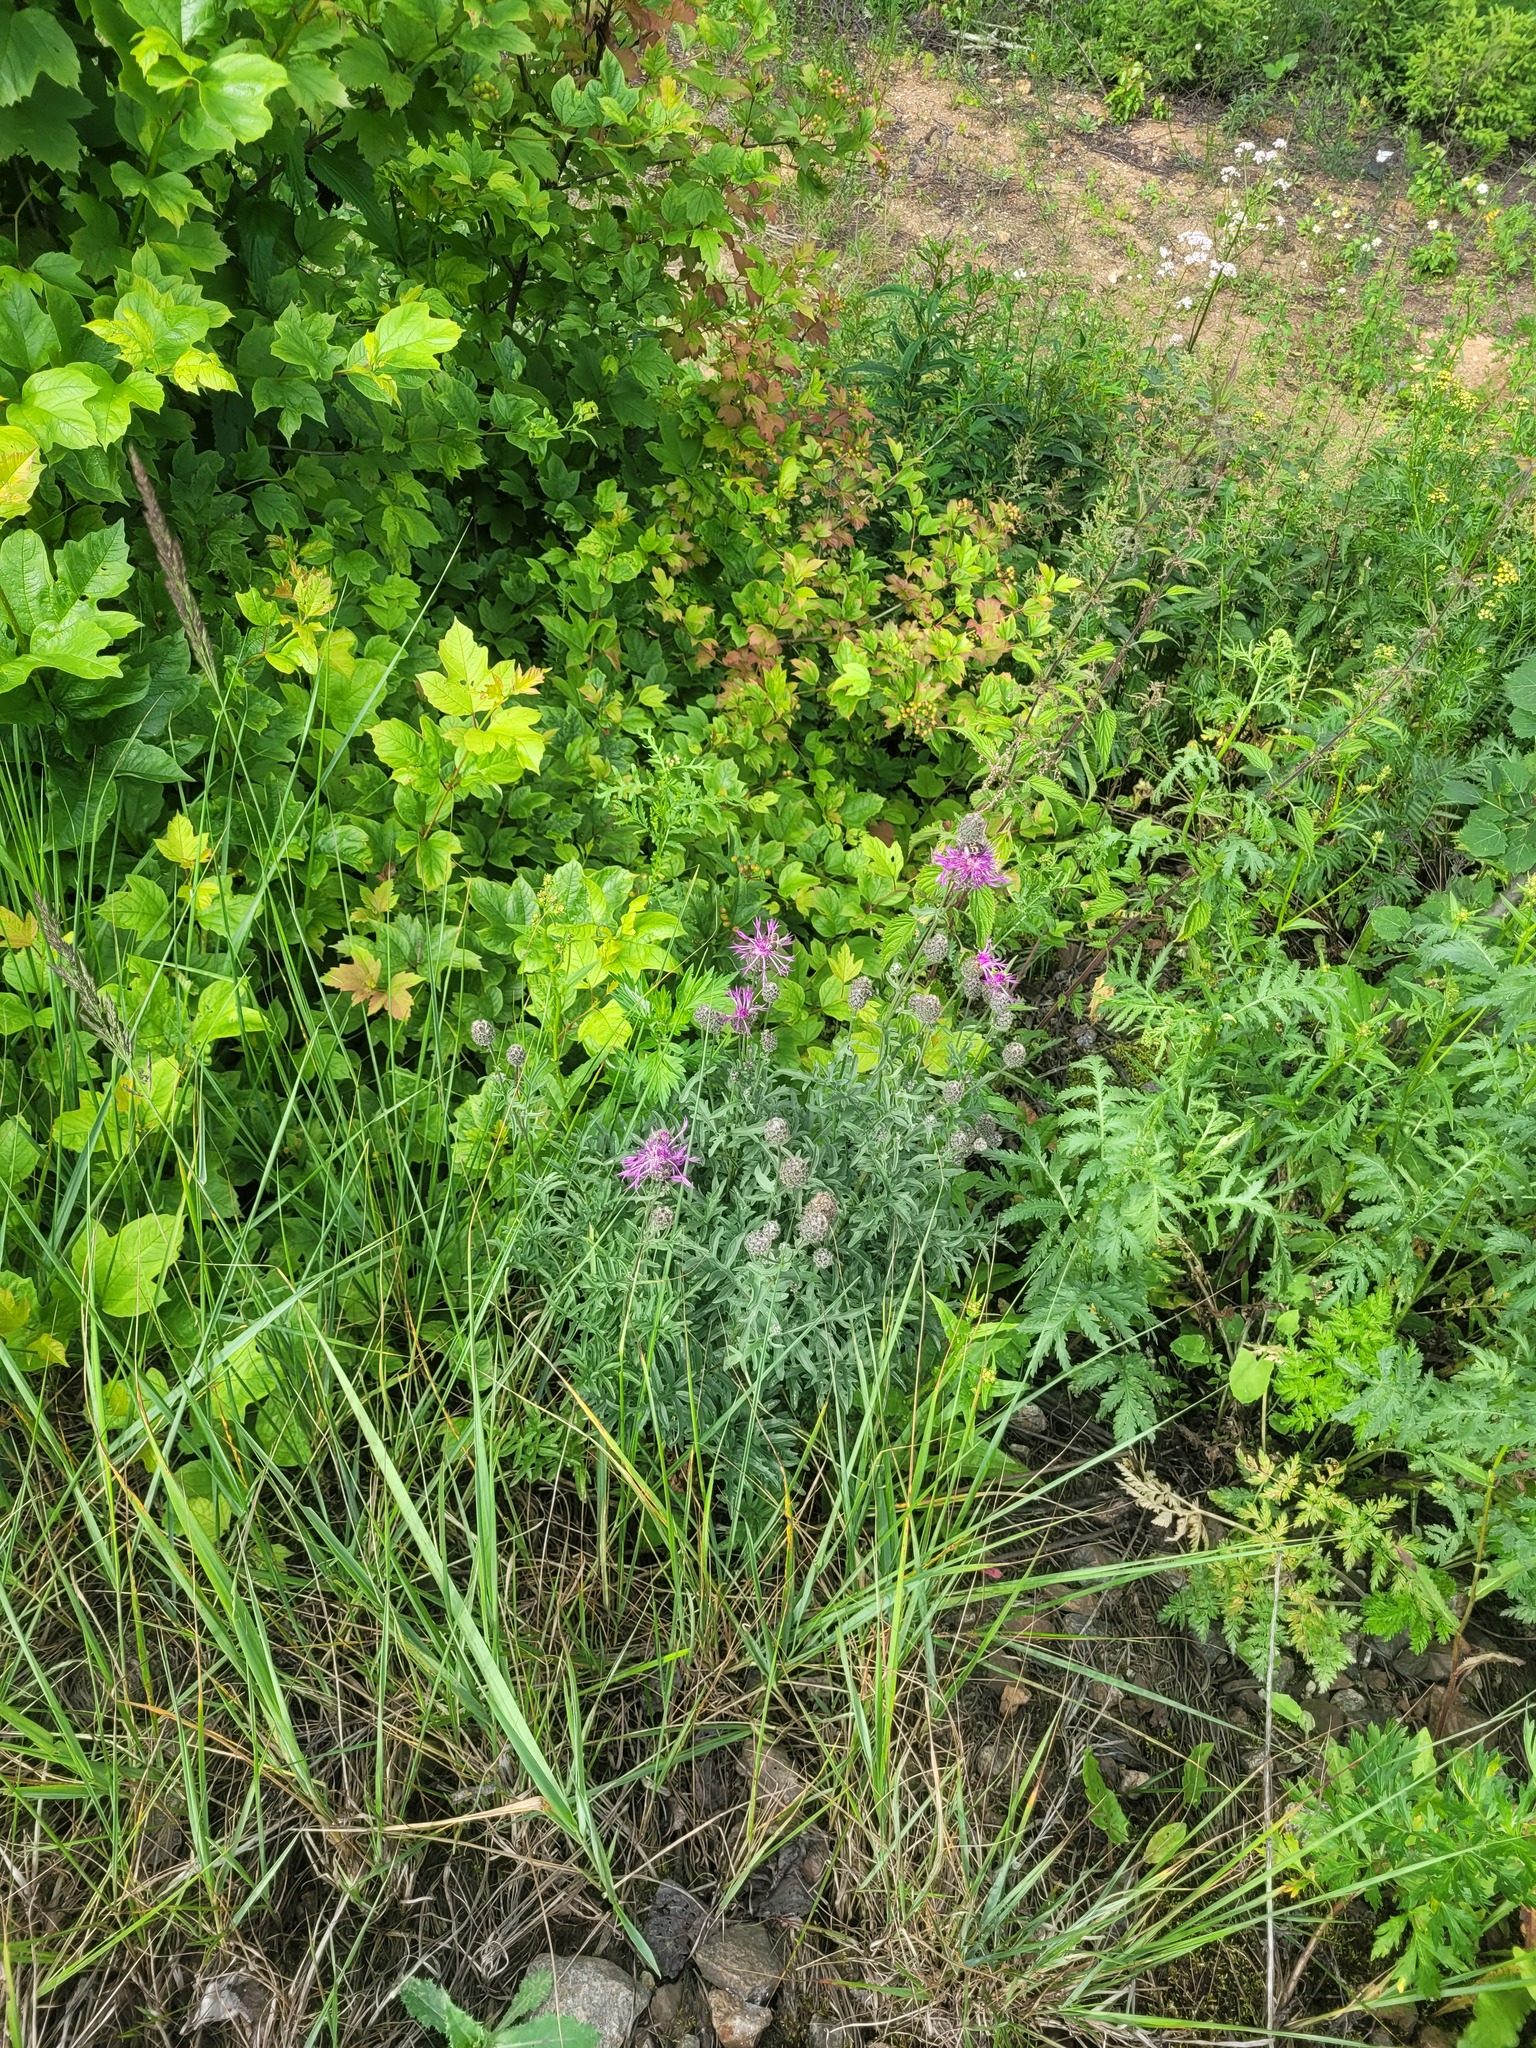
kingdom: Plantae
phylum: Tracheophyta
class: Magnoliopsida
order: Asterales
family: Asteraceae
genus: Centaurea
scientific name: Centaurea scabiosa
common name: Greater knapweed
